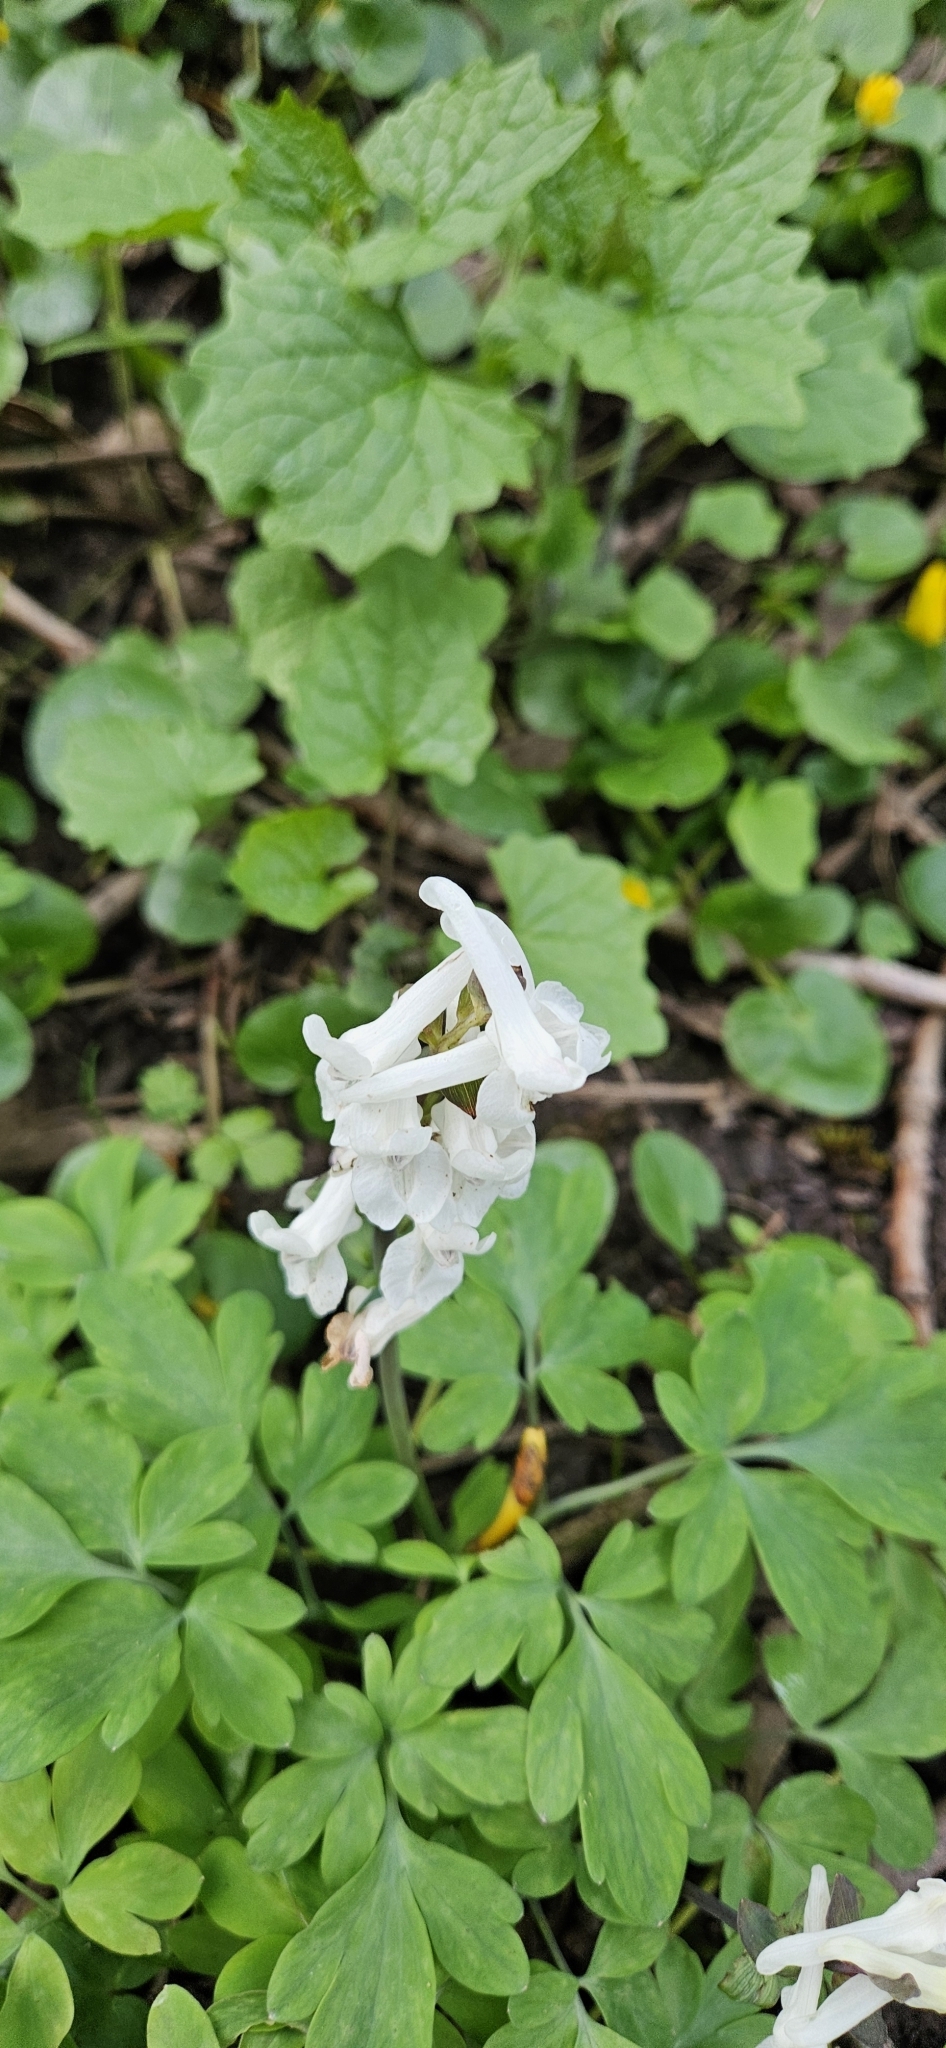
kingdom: Plantae
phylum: Tracheophyta
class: Magnoliopsida
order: Ranunculales
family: Papaveraceae
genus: Corydalis
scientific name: Corydalis cava
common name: Hollowroot
